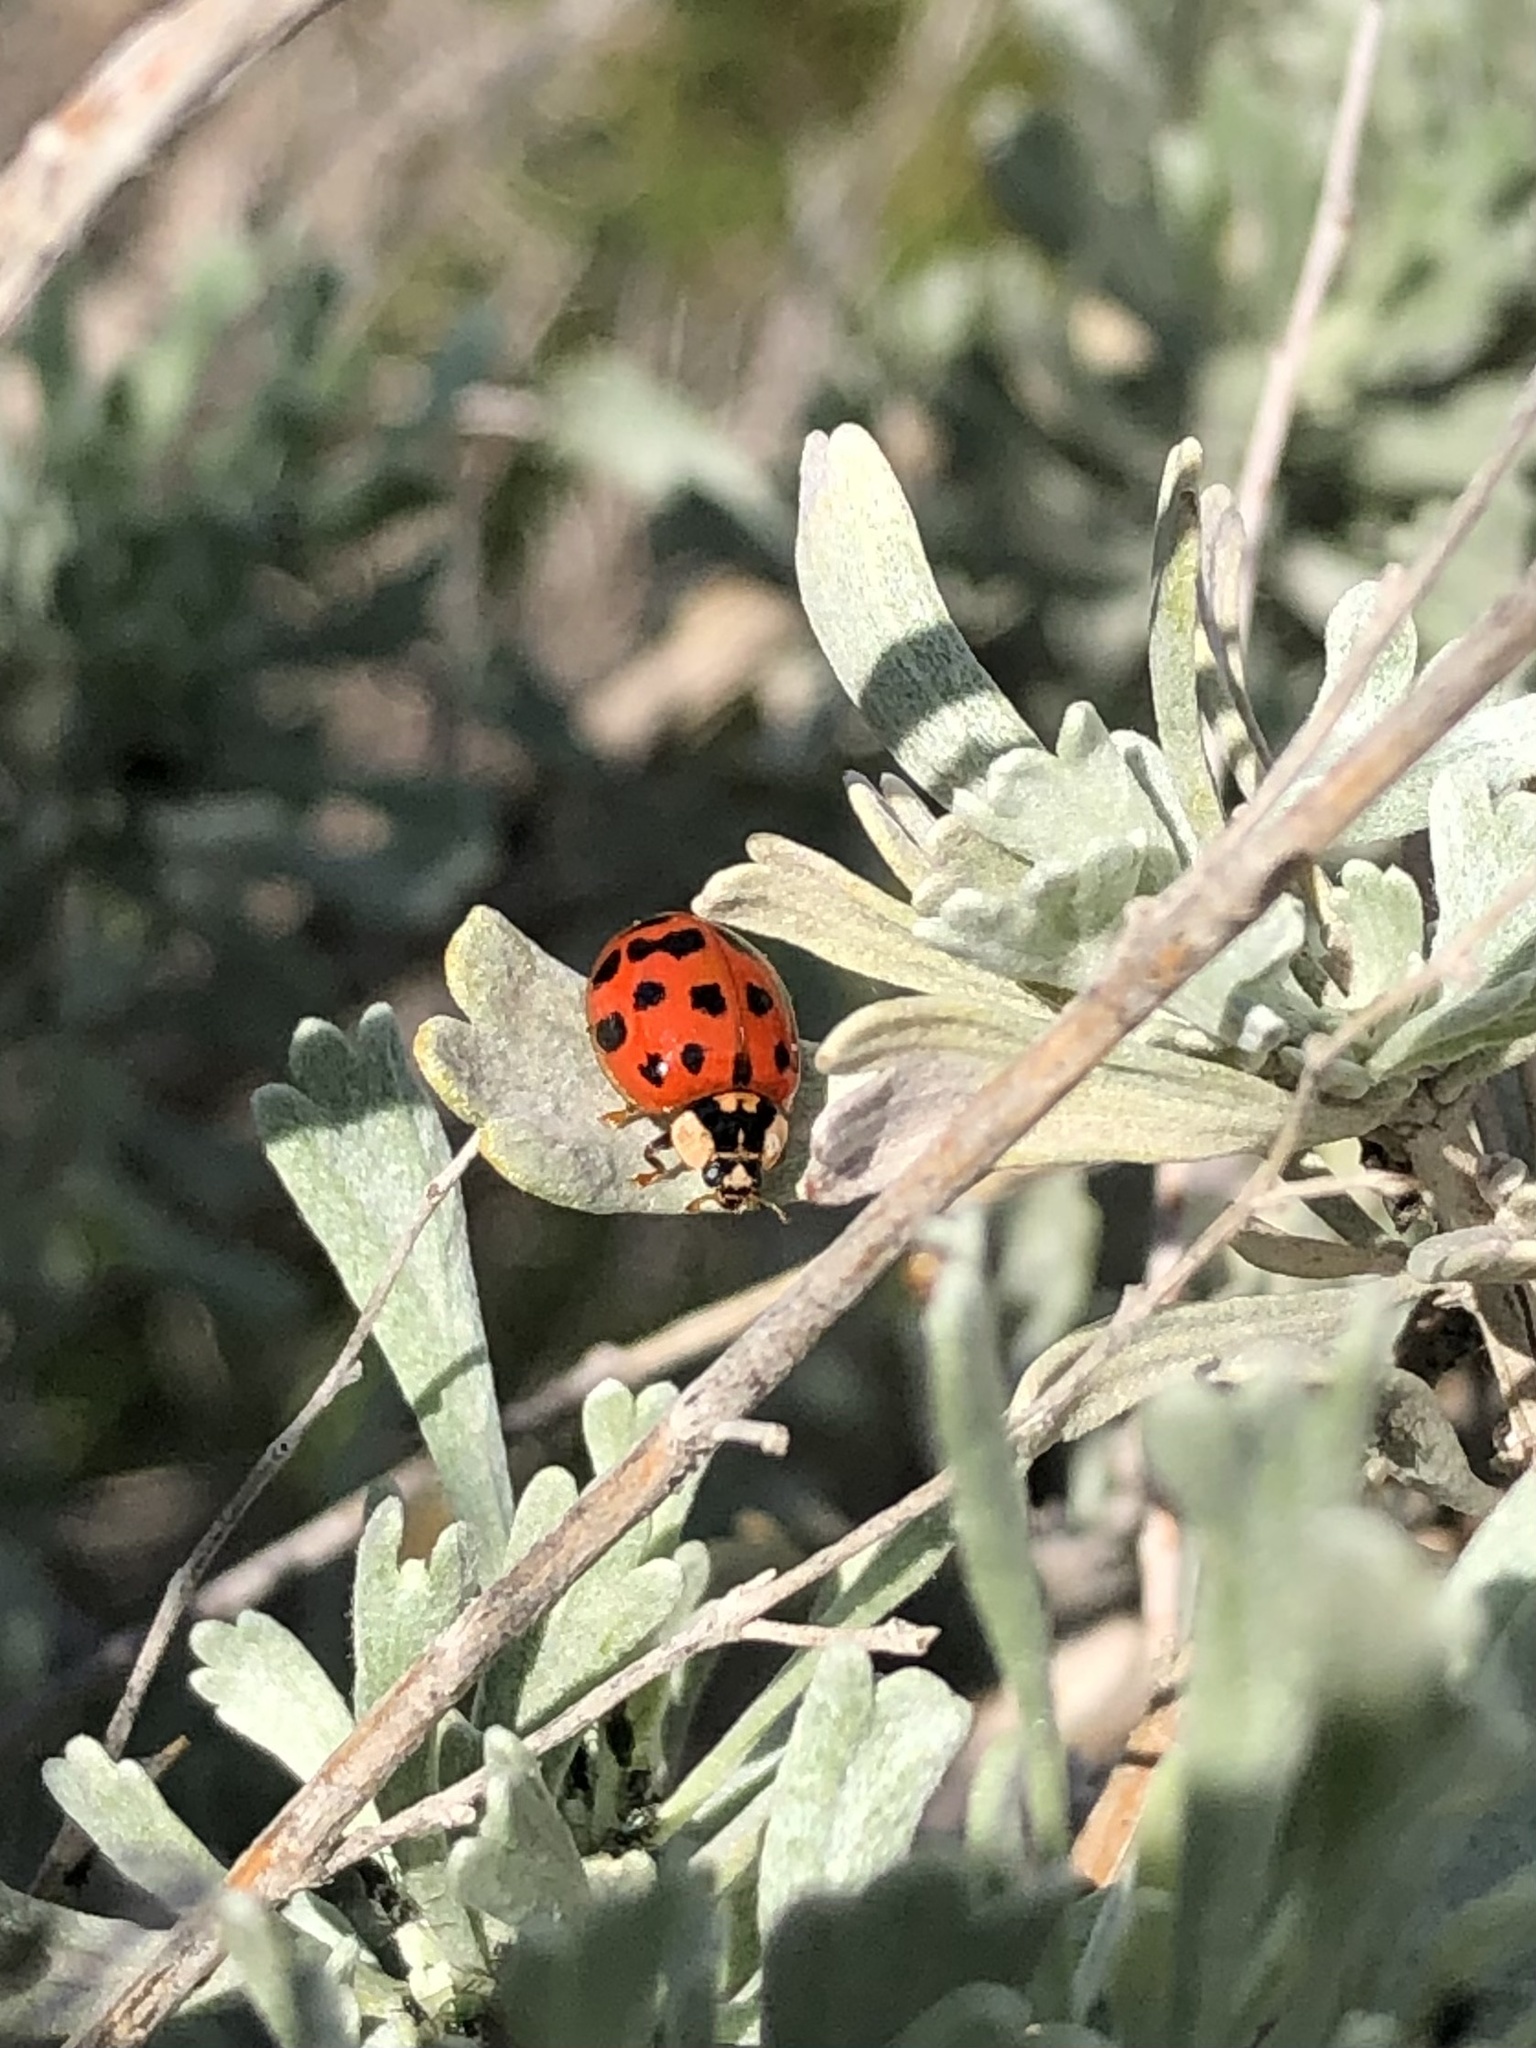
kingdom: Animalia
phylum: Arthropoda
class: Insecta
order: Coleoptera
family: Coccinellidae
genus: Harmonia
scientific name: Harmonia axyridis
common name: Harlequin ladybird
